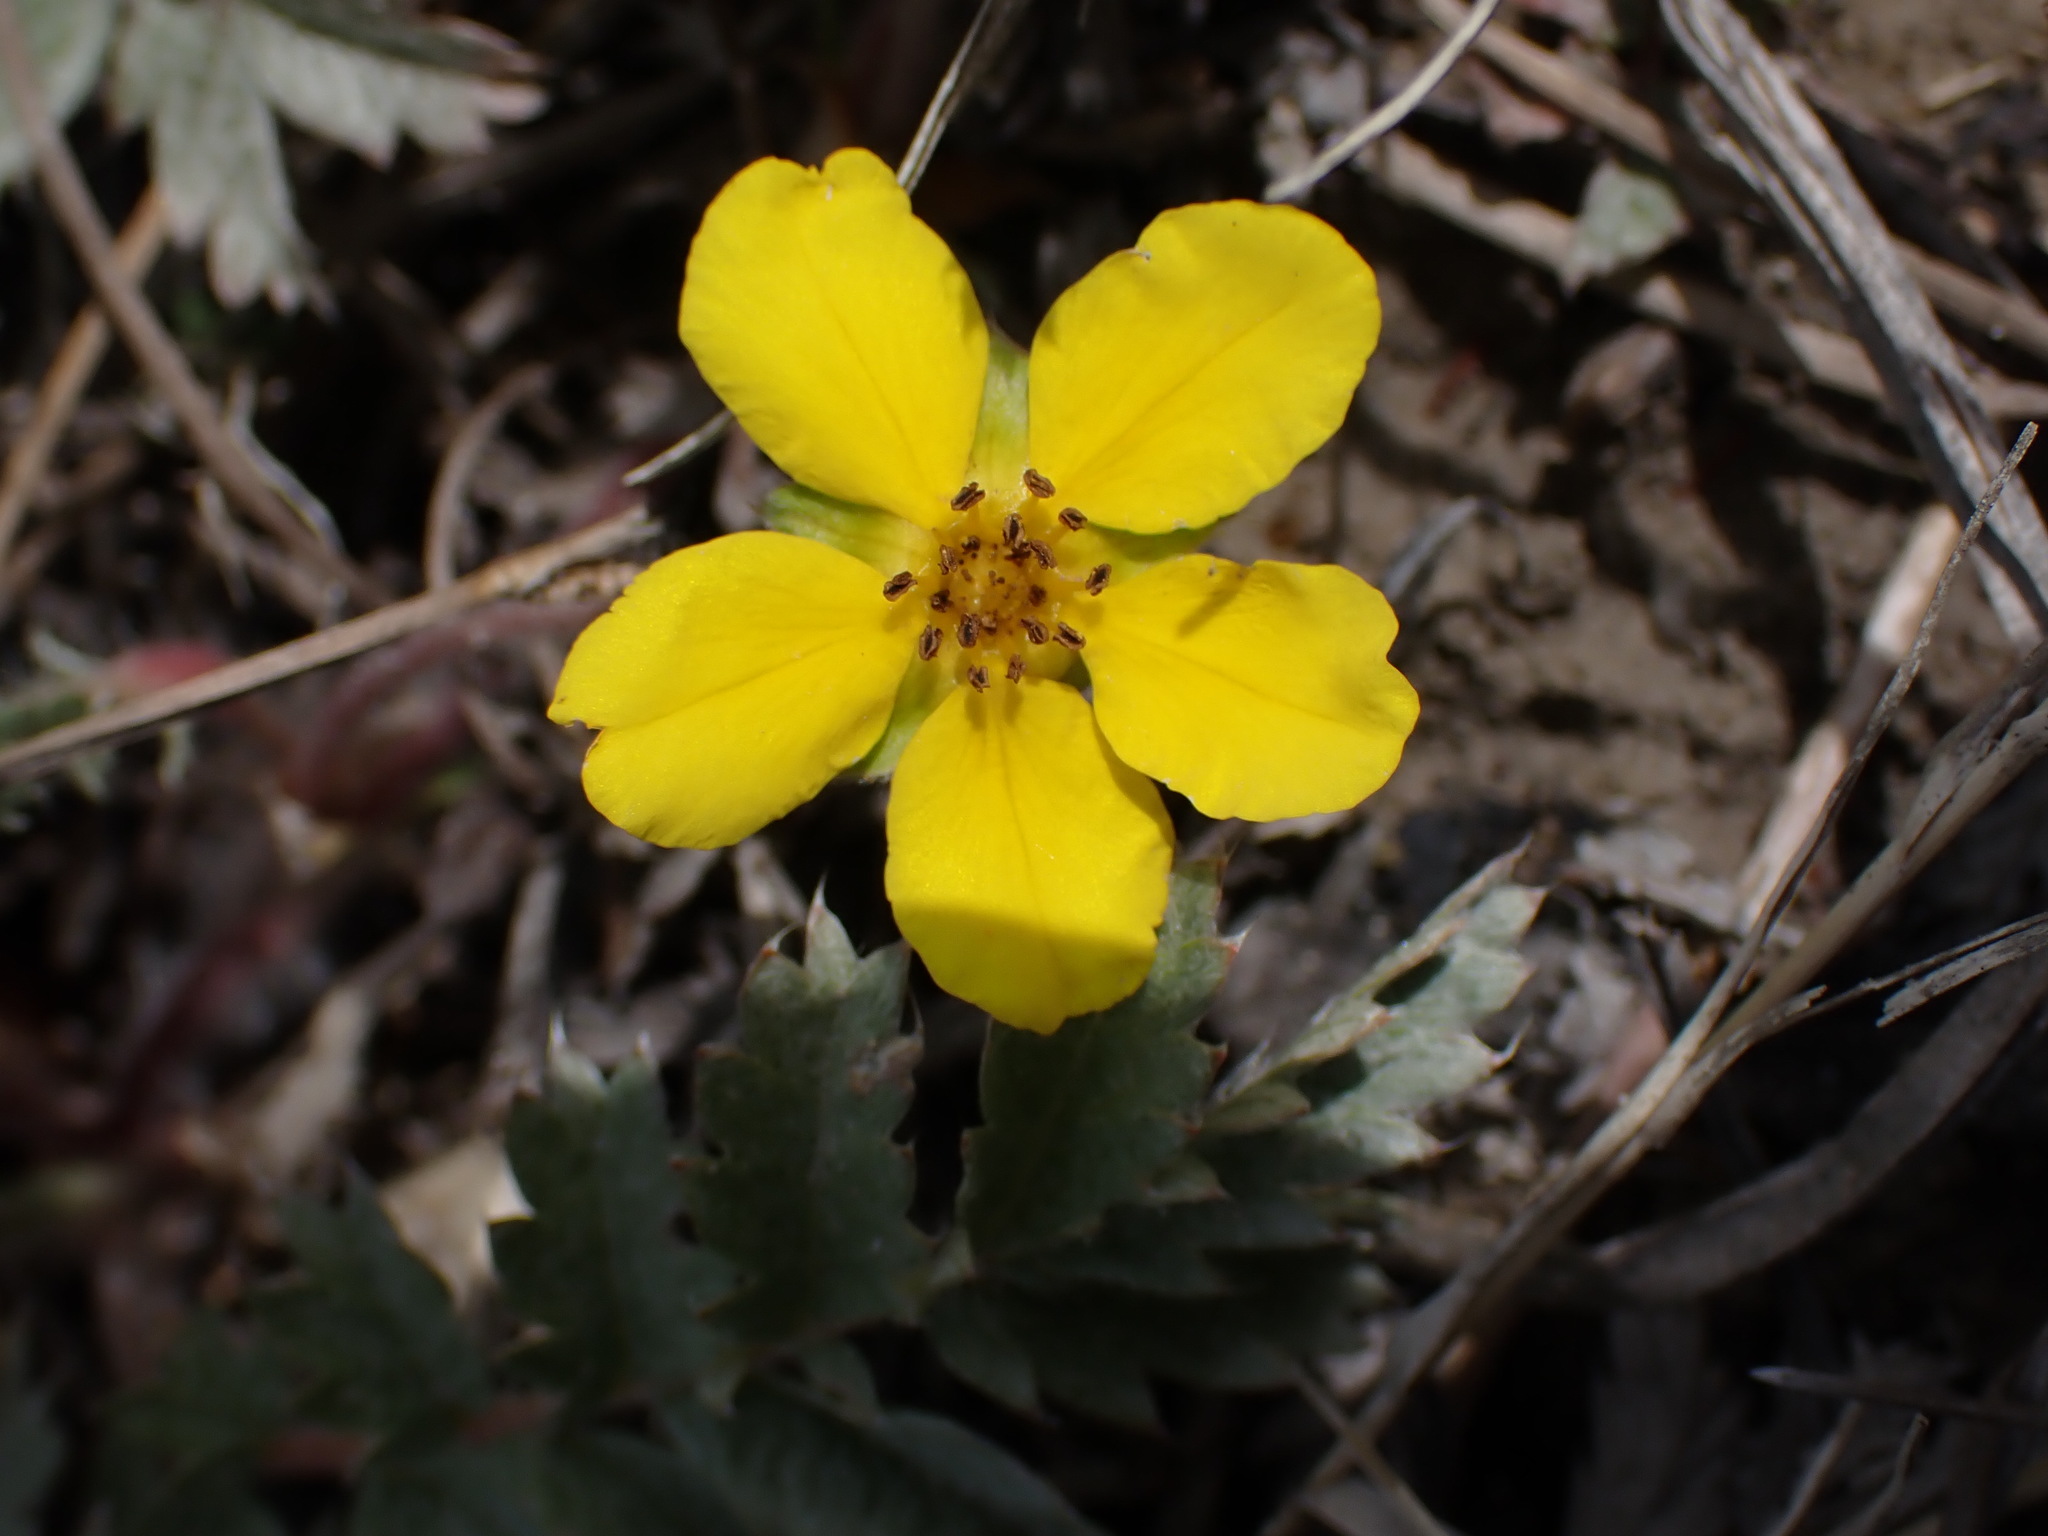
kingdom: Plantae
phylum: Tracheophyta
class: Magnoliopsida
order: Rosales
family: Rosaceae
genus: Argentina
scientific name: Argentina anserina
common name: Common silverweed
